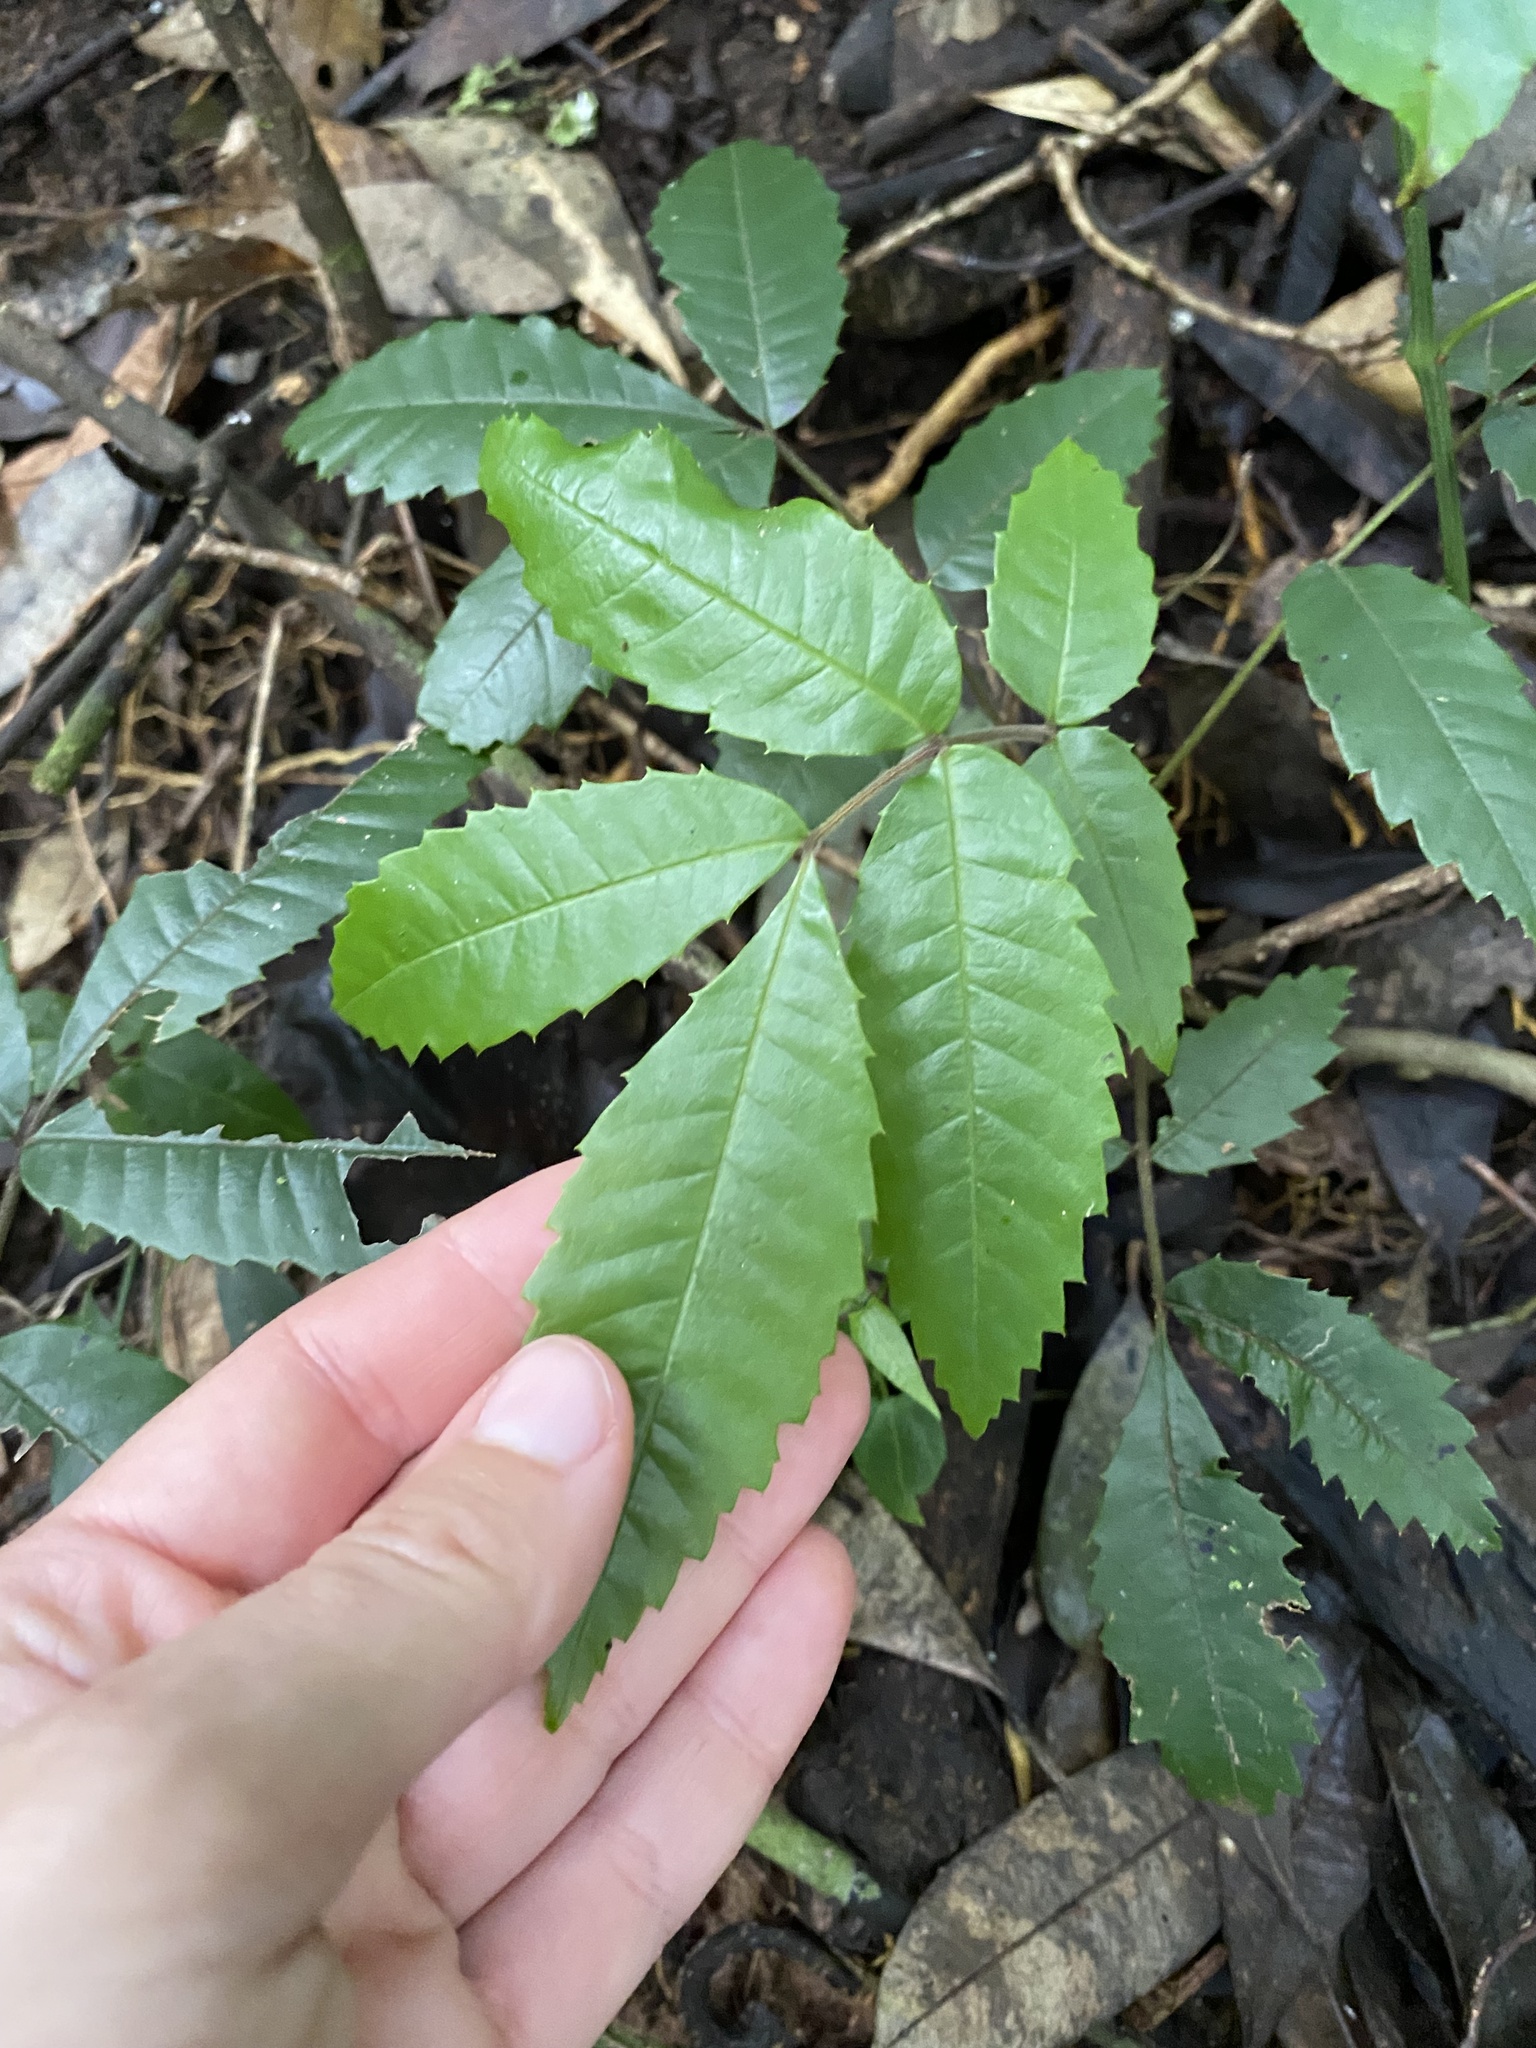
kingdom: Plantae
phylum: Tracheophyta
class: Magnoliopsida
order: Ericales
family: Primulaceae
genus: Ardisia
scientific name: Ardisia crenata
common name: Hen's eyes
